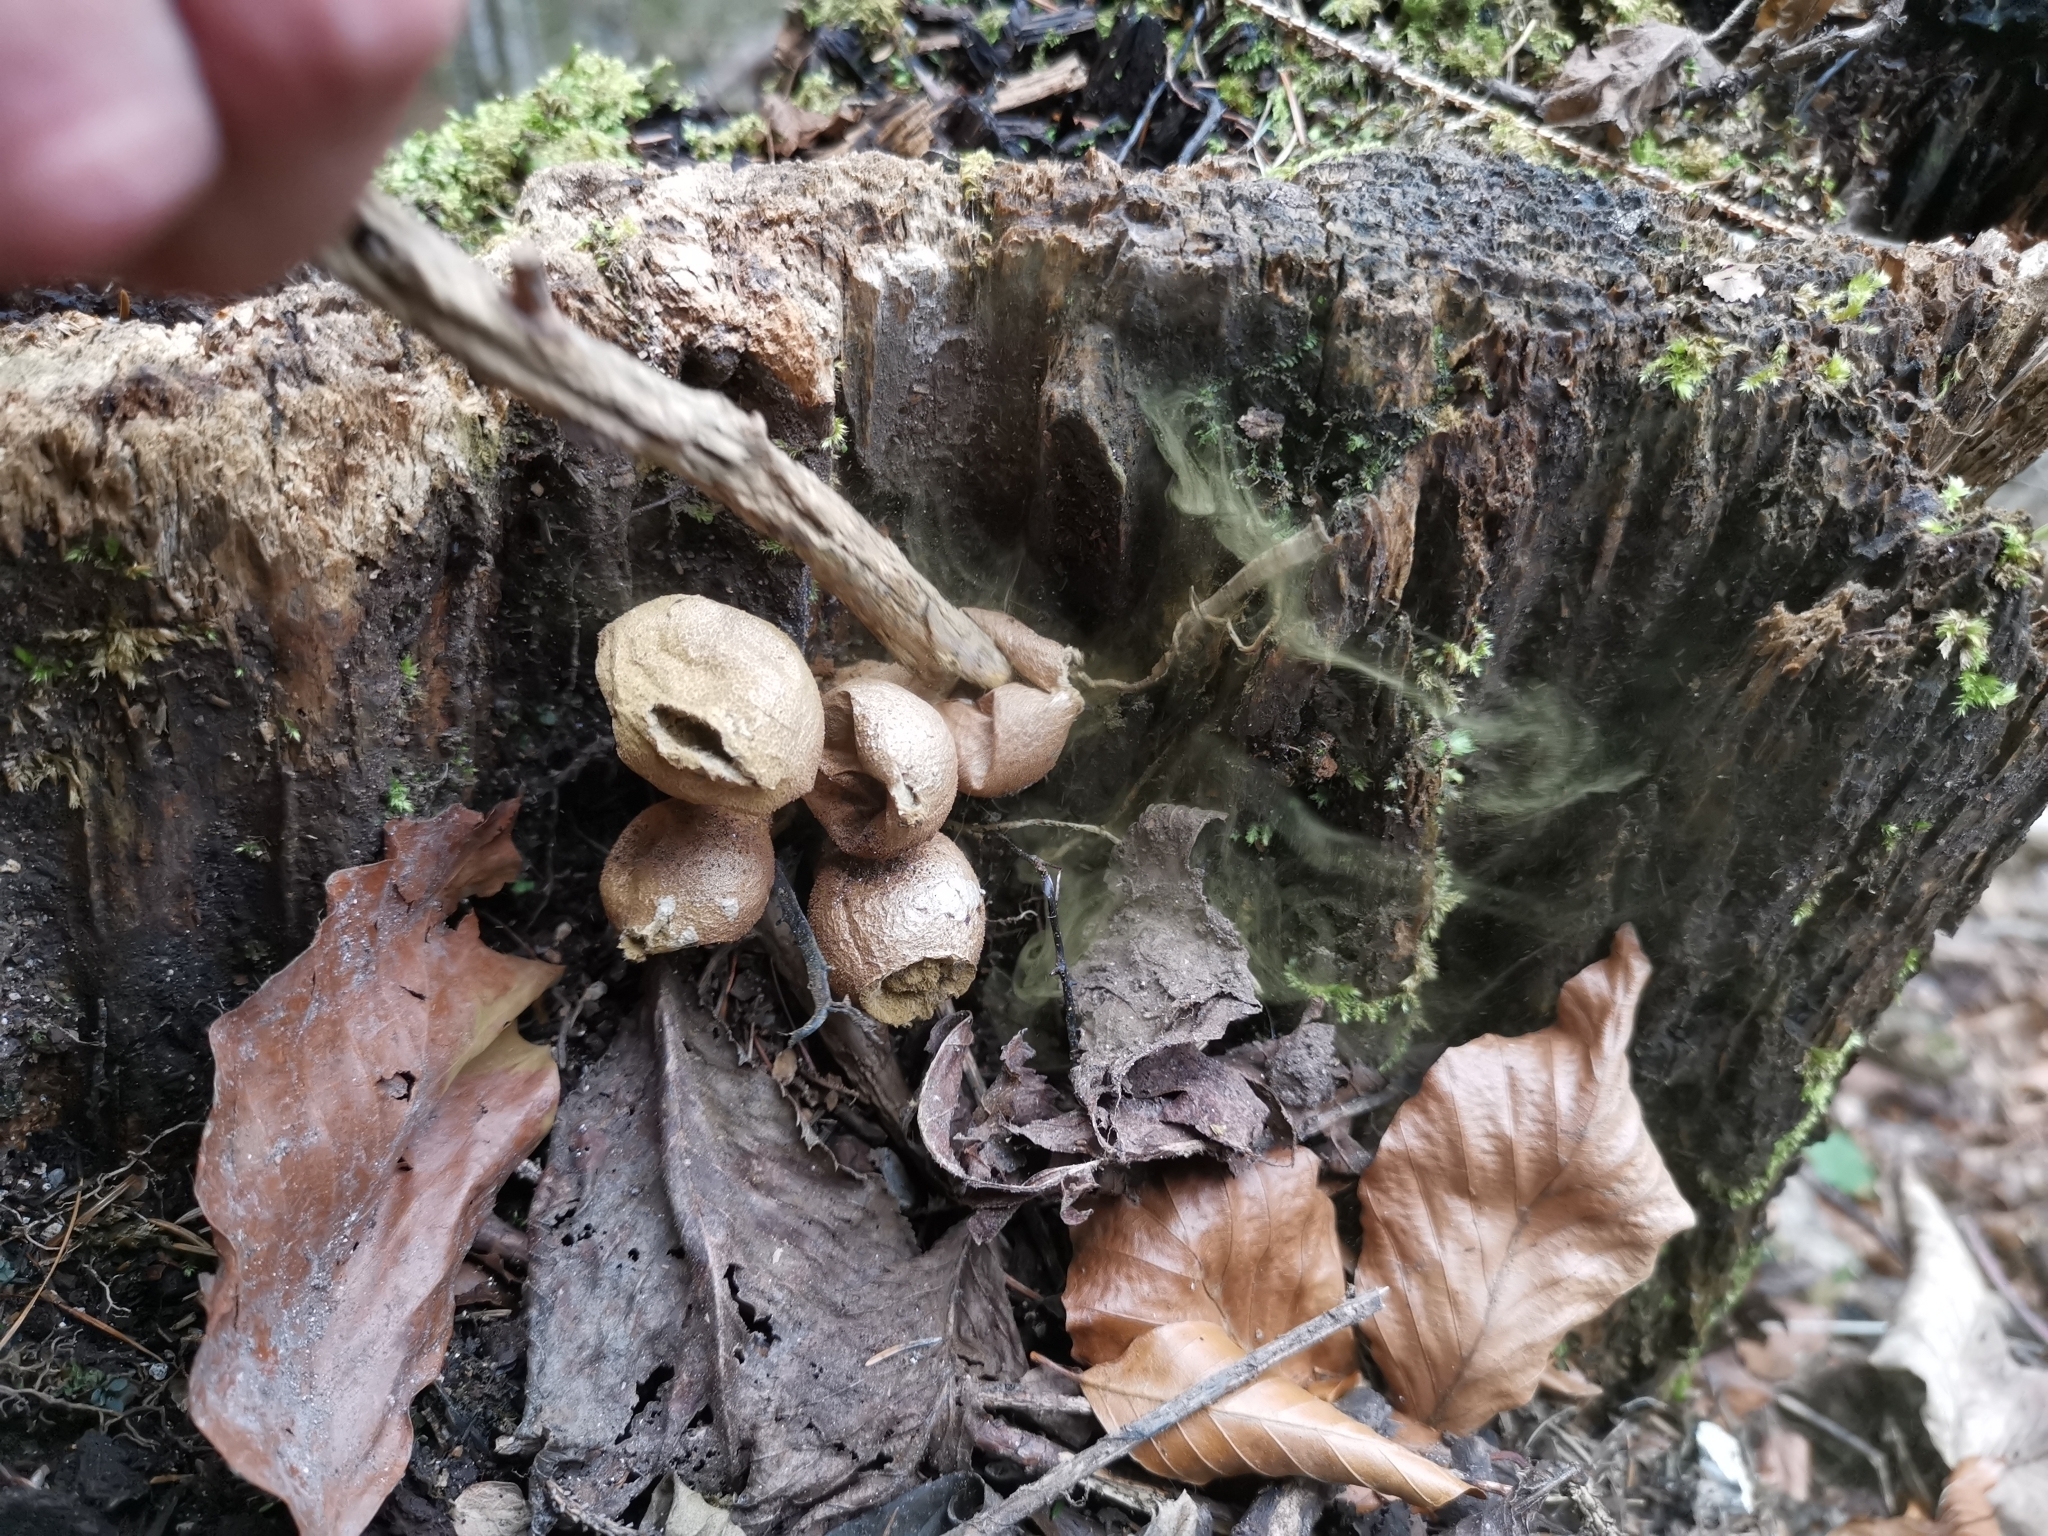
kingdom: Fungi
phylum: Basidiomycota
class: Agaricomycetes
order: Agaricales
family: Lycoperdaceae
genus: Apioperdon
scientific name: Apioperdon pyriforme
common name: Pear-shaped puffball
